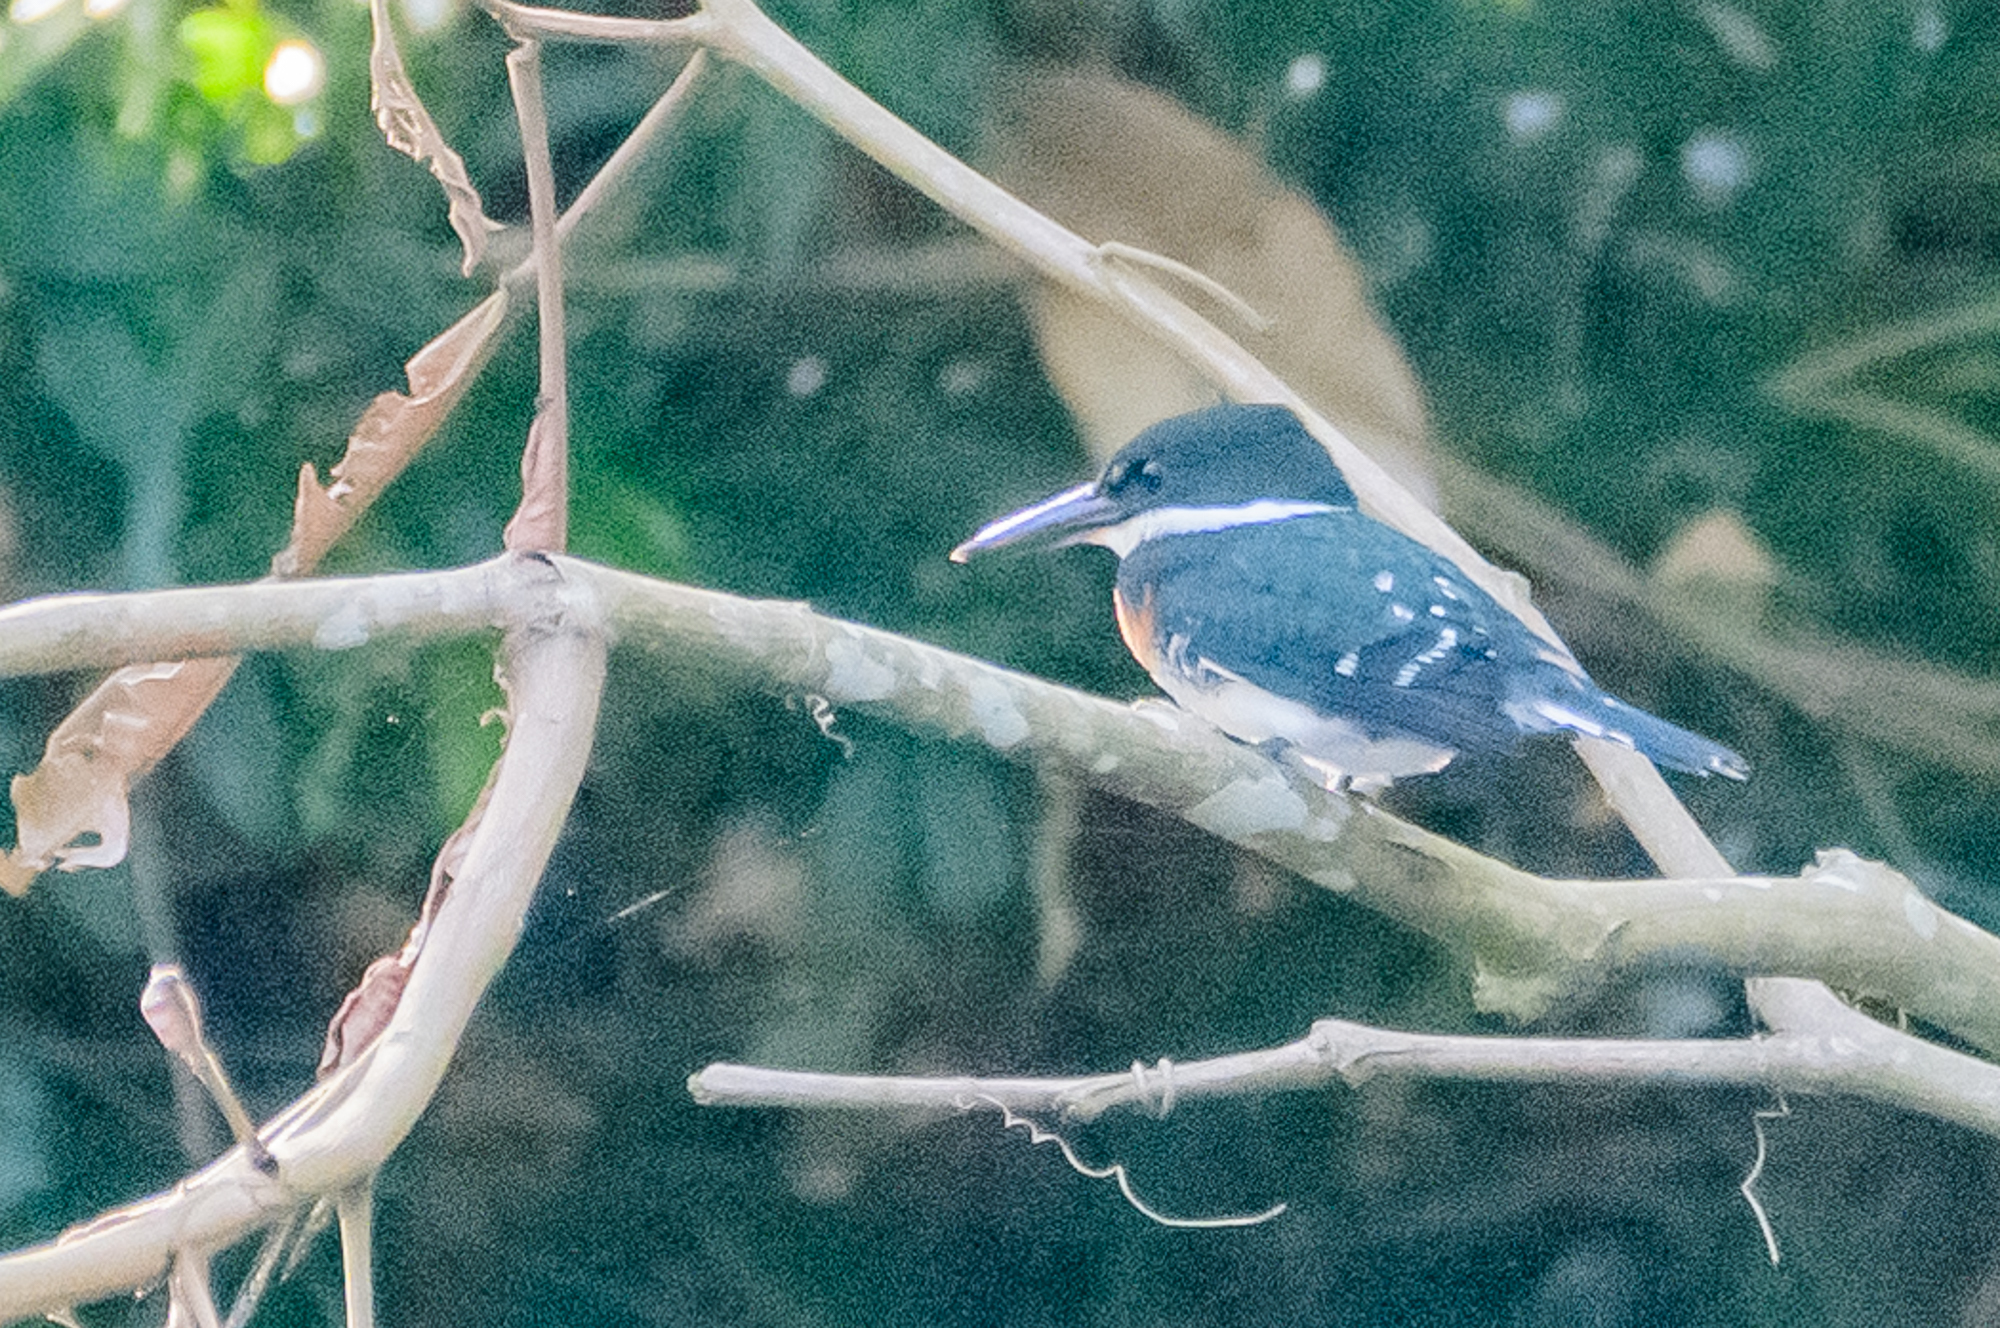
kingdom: Animalia
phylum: Chordata
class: Aves
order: Coraciiformes
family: Alcedinidae
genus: Chloroceryle
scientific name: Chloroceryle americana
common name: Green kingfisher
